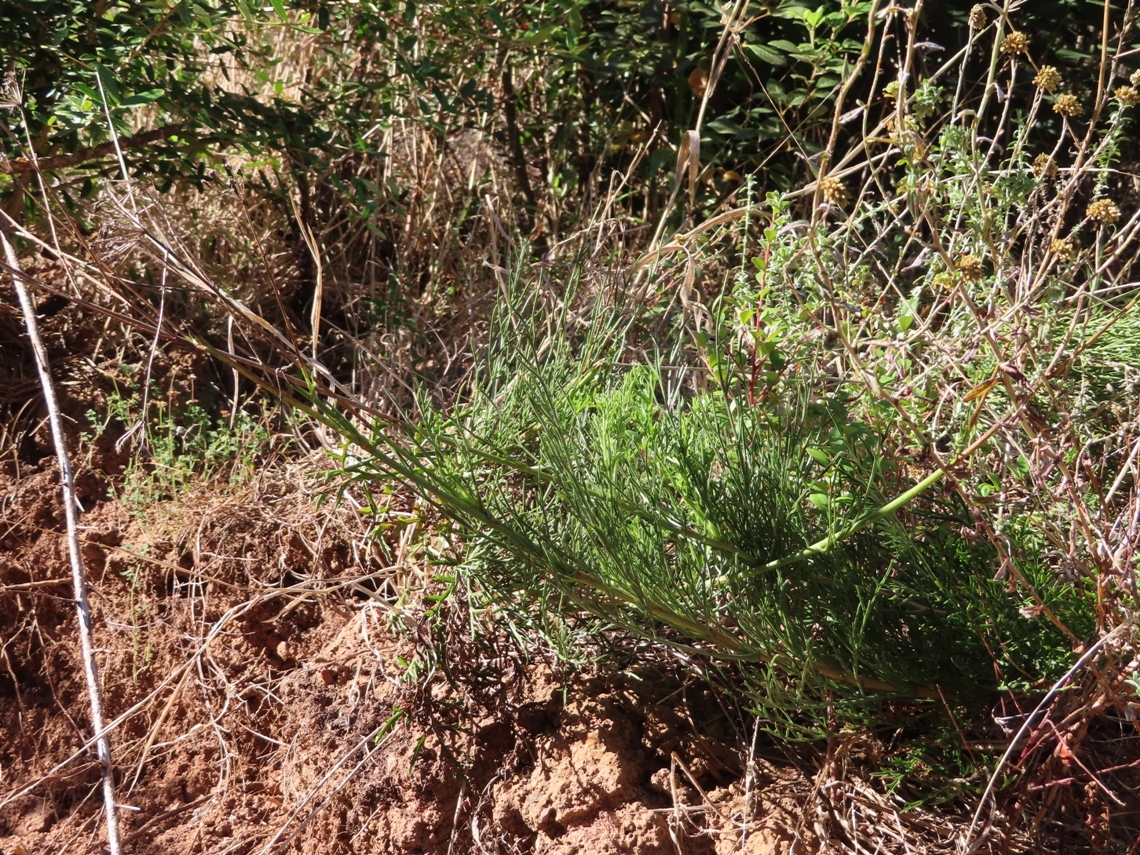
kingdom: Plantae
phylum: Tracheophyta
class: Magnoliopsida
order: Apiales
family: Apiaceae
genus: Notobubon
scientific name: Notobubon ferulaceum
